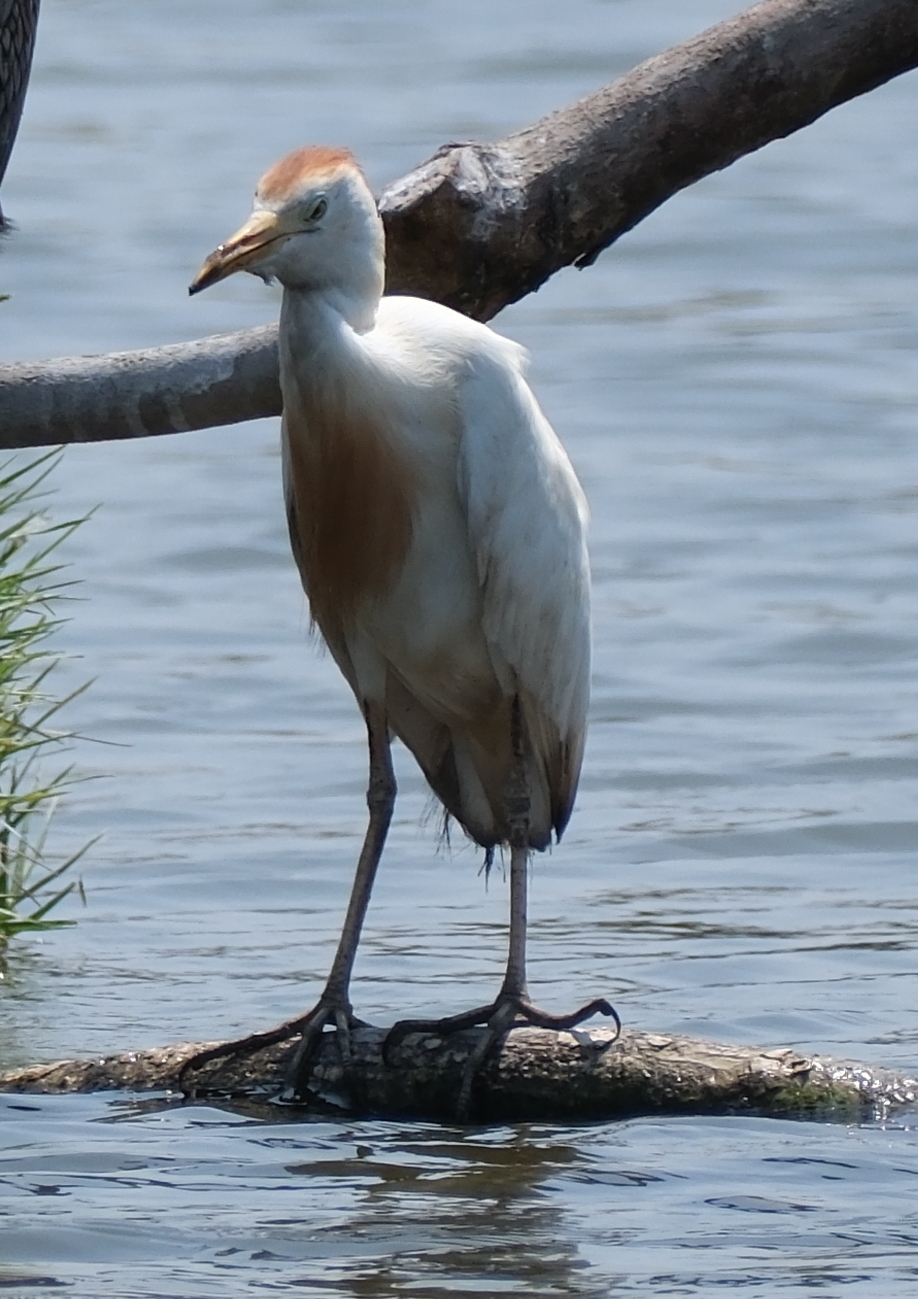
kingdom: Animalia
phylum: Chordata
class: Aves
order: Pelecaniformes
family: Ardeidae
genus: Bubulcus
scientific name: Bubulcus ibis
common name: Cattle egret
